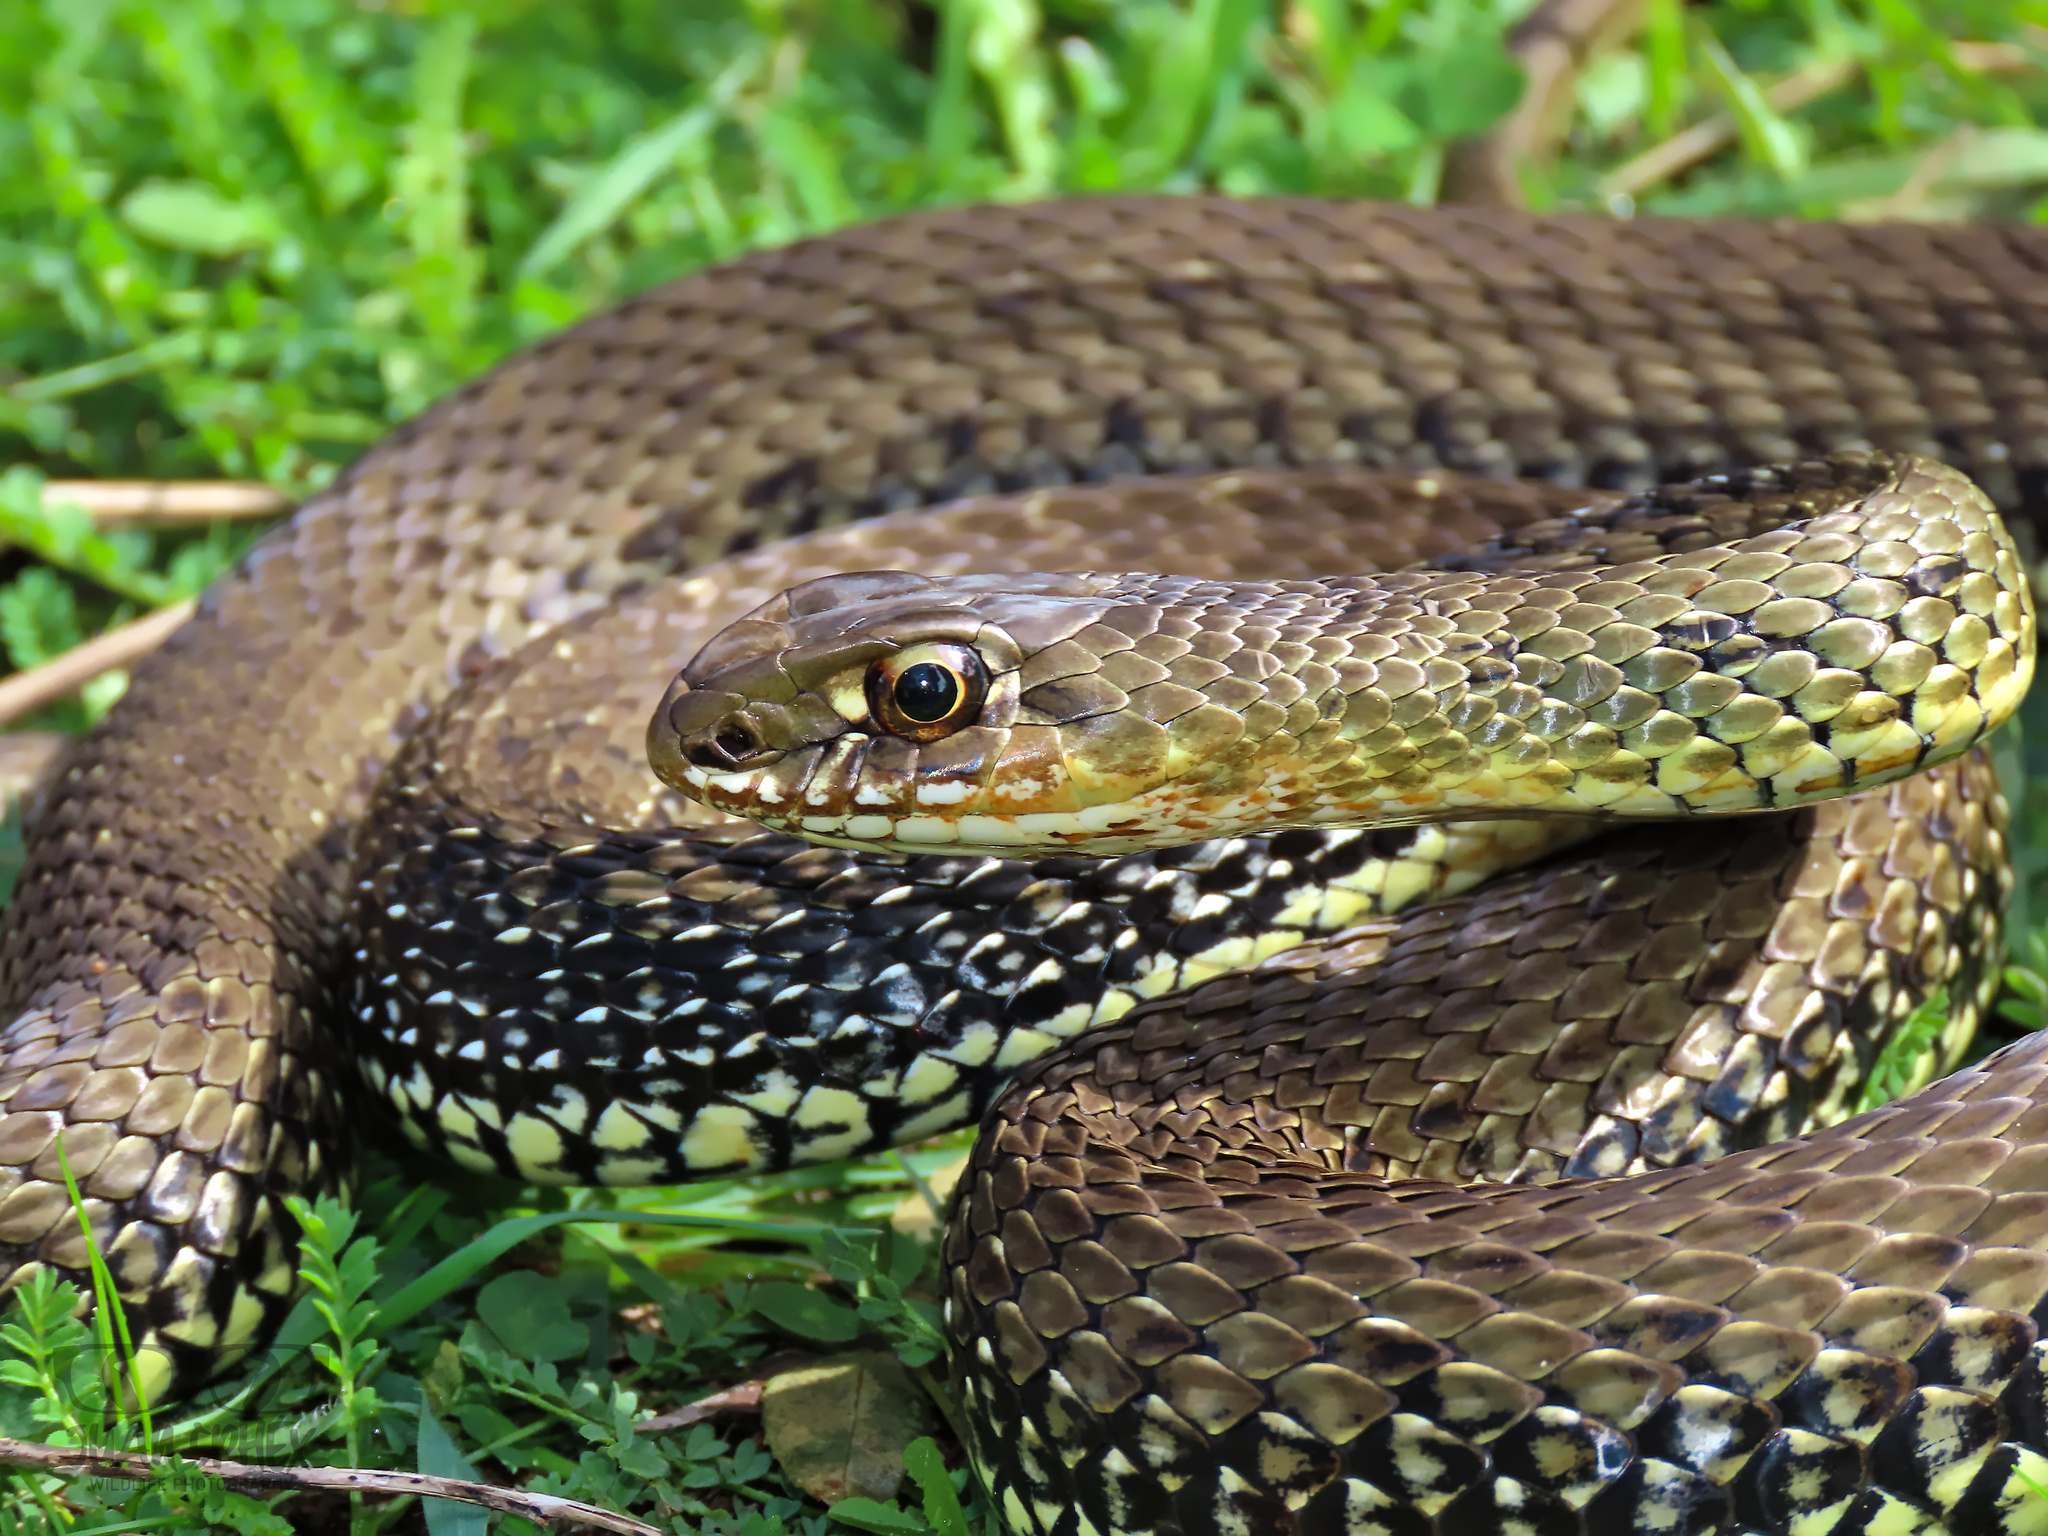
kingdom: Animalia
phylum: Chordata
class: Squamata
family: Psammophiidae
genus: Malpolon
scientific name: Malpolon monspessulanus
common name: Montpellier snake
